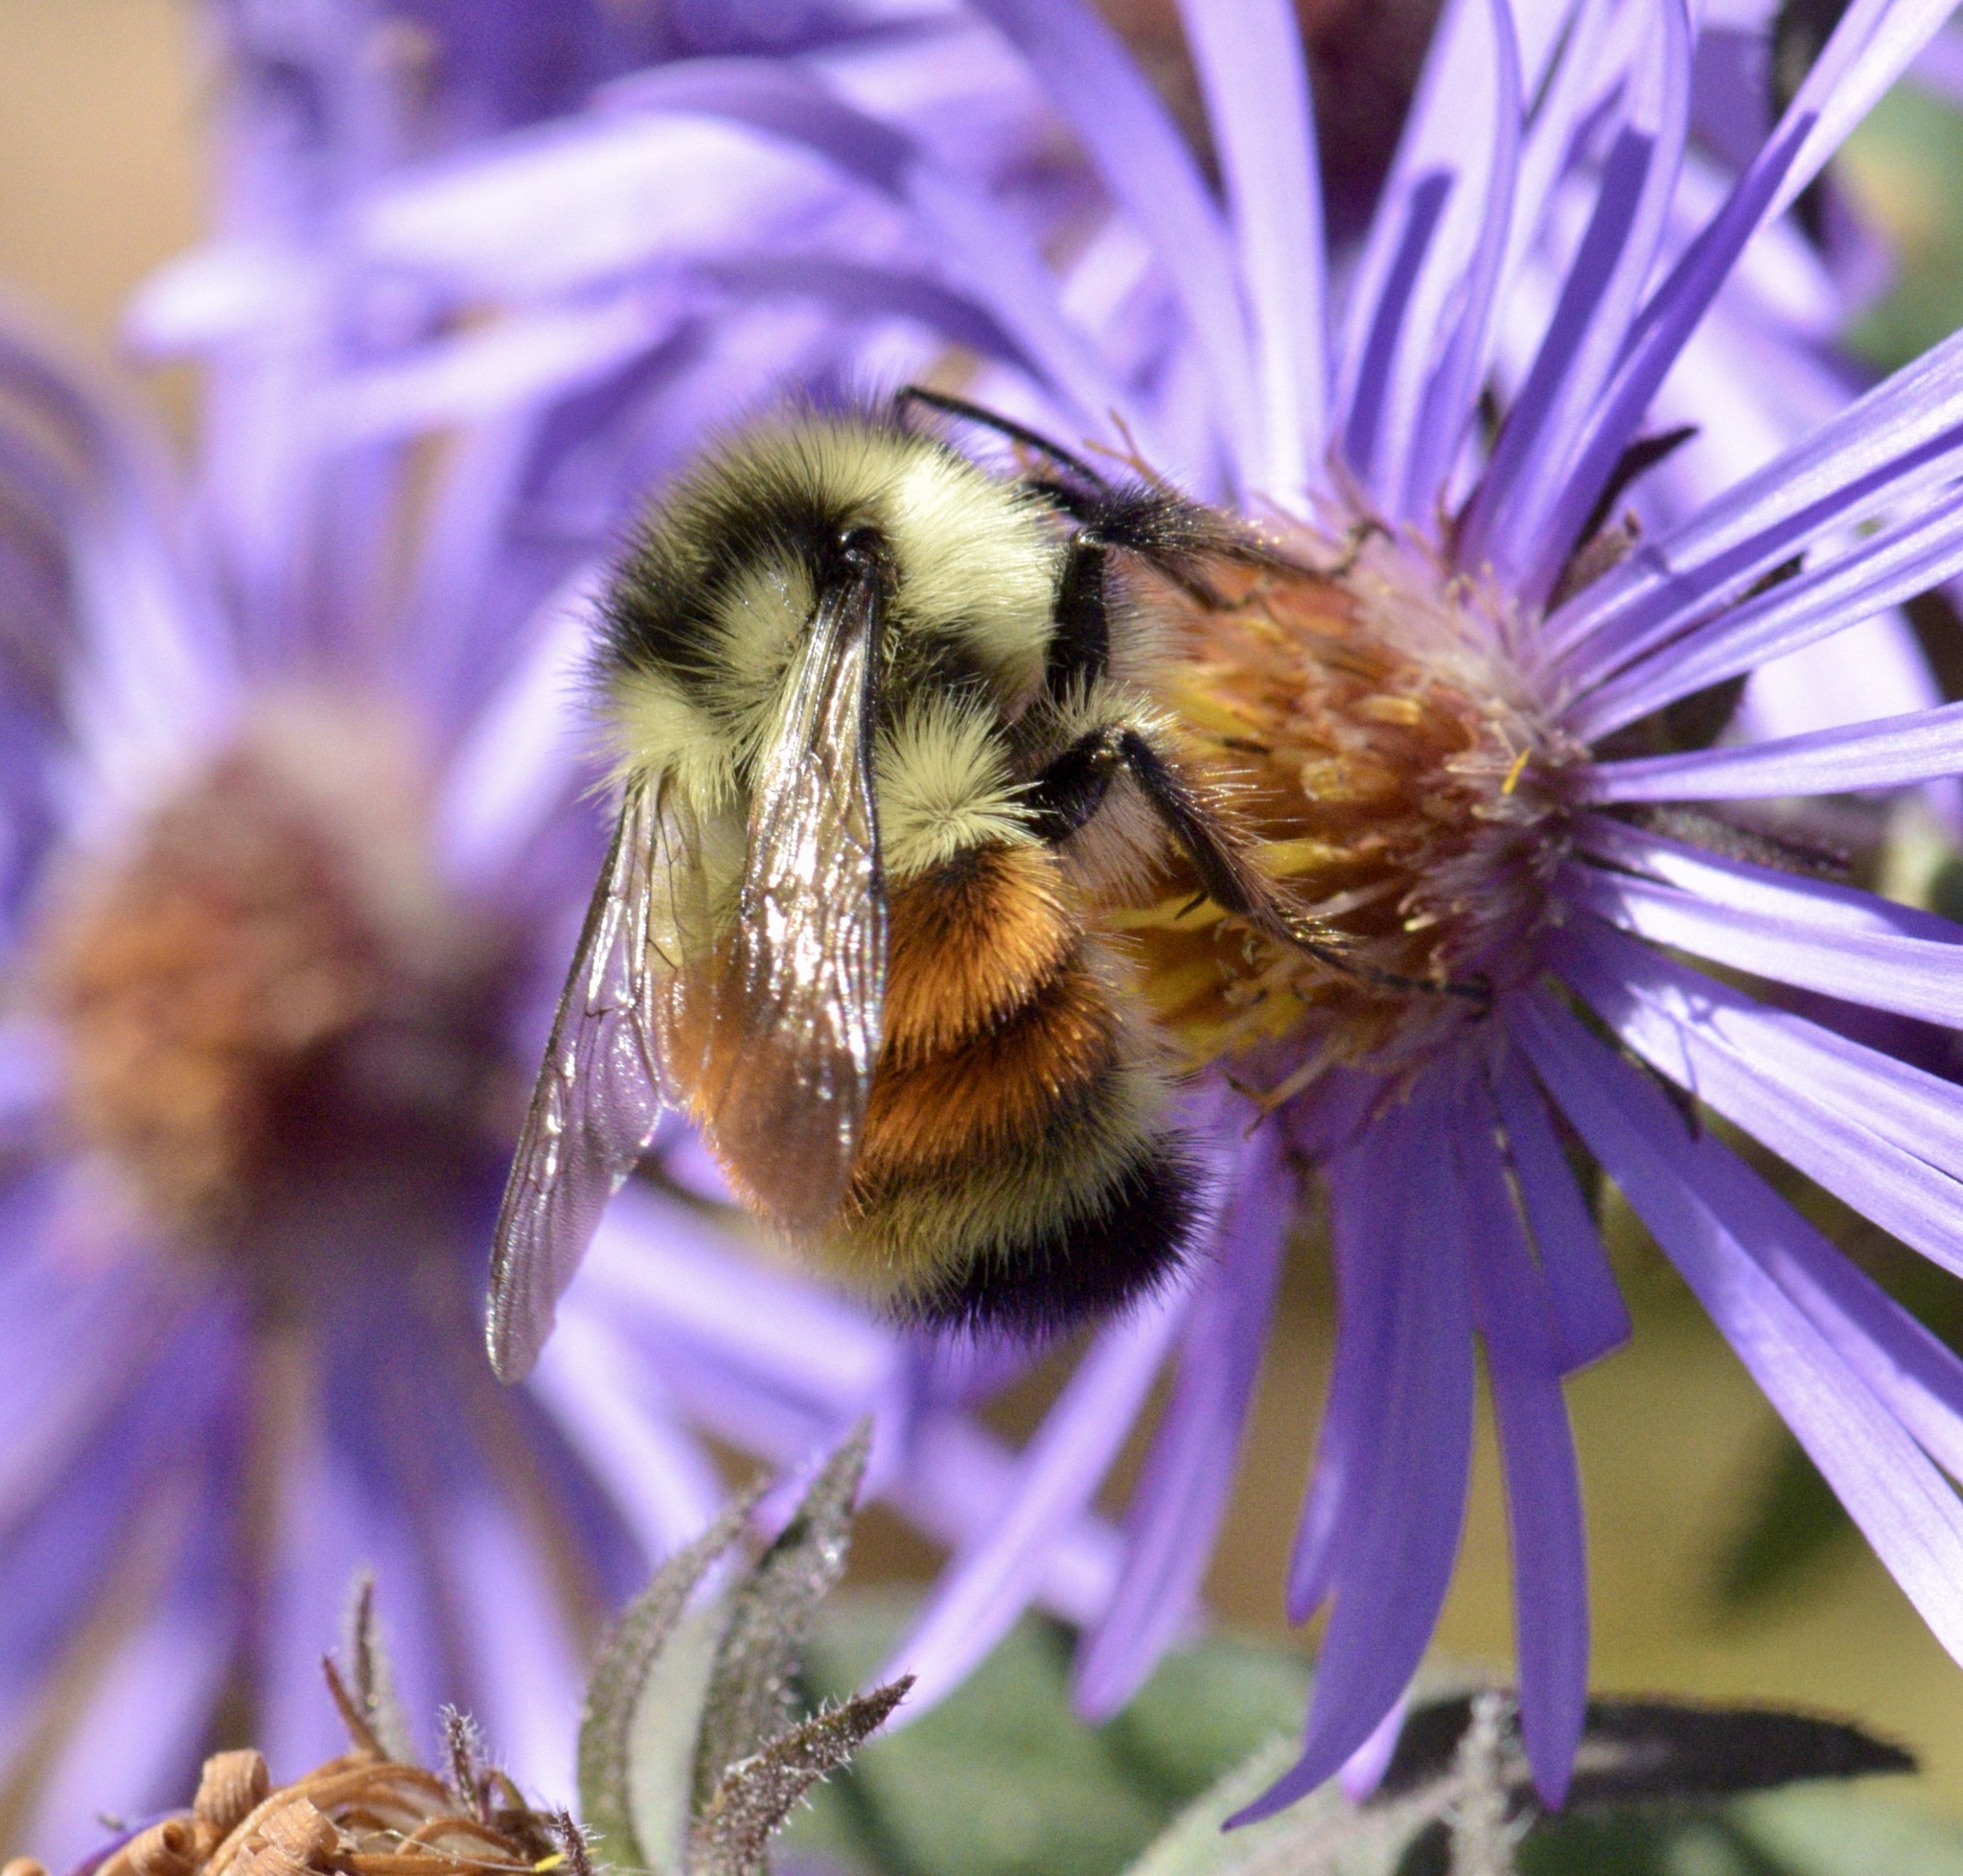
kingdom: Animalia
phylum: Arthropoda
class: Insecta
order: Hymenoptera
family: Apidae
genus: Bombus
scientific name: Bombus ternarius
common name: Tri-colored bumble bee
